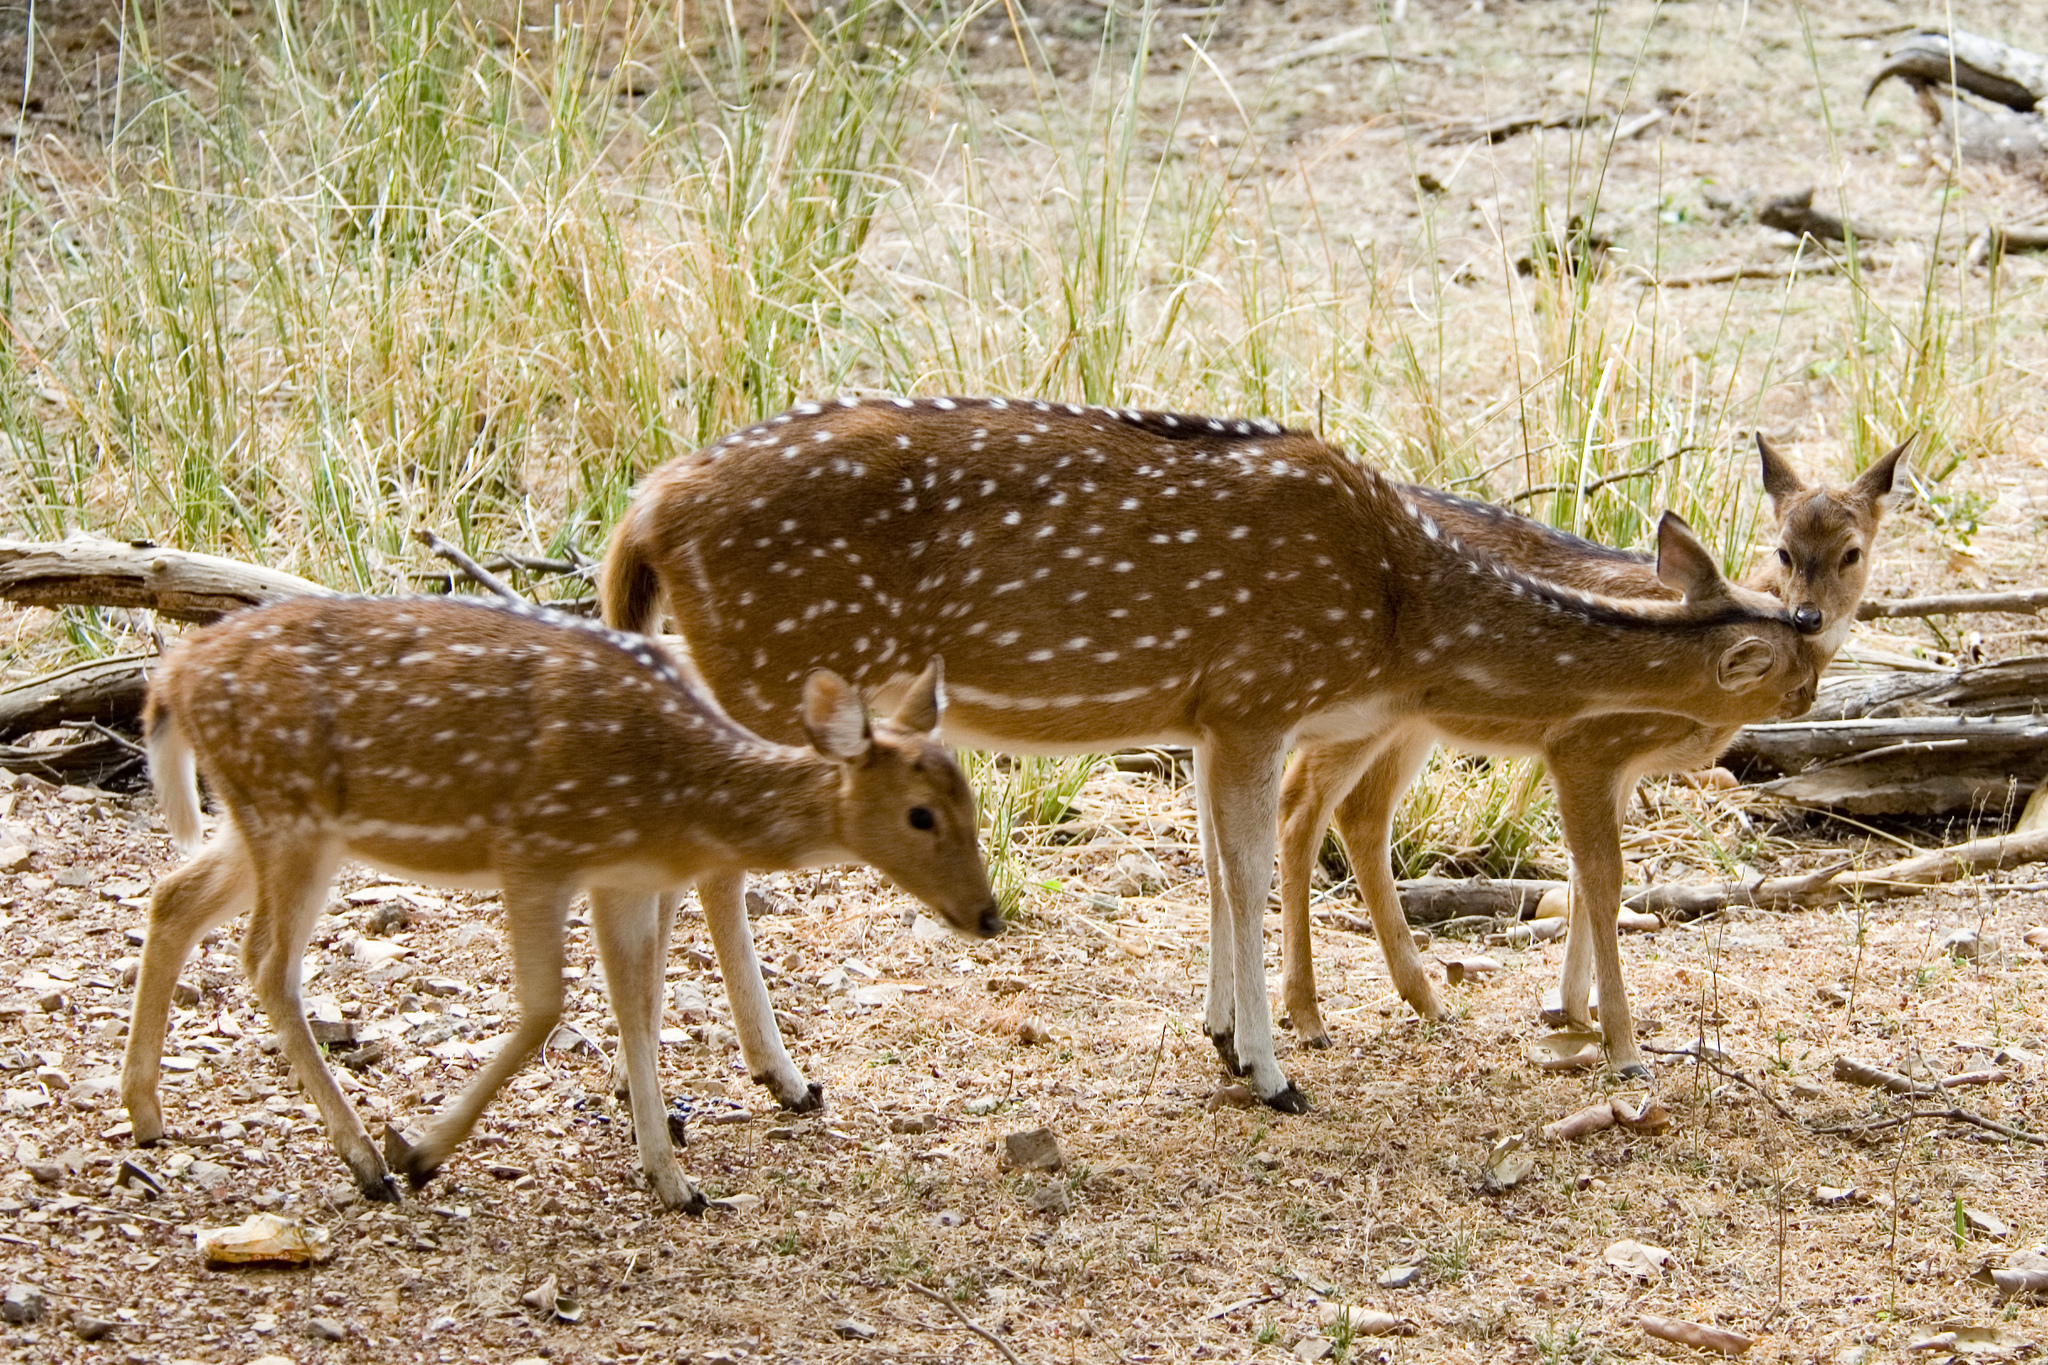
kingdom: Animalia
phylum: Chordata
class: Mammalia
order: Artiodactyla
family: Cervidae
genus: Axis
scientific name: Axis axis
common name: Chital
